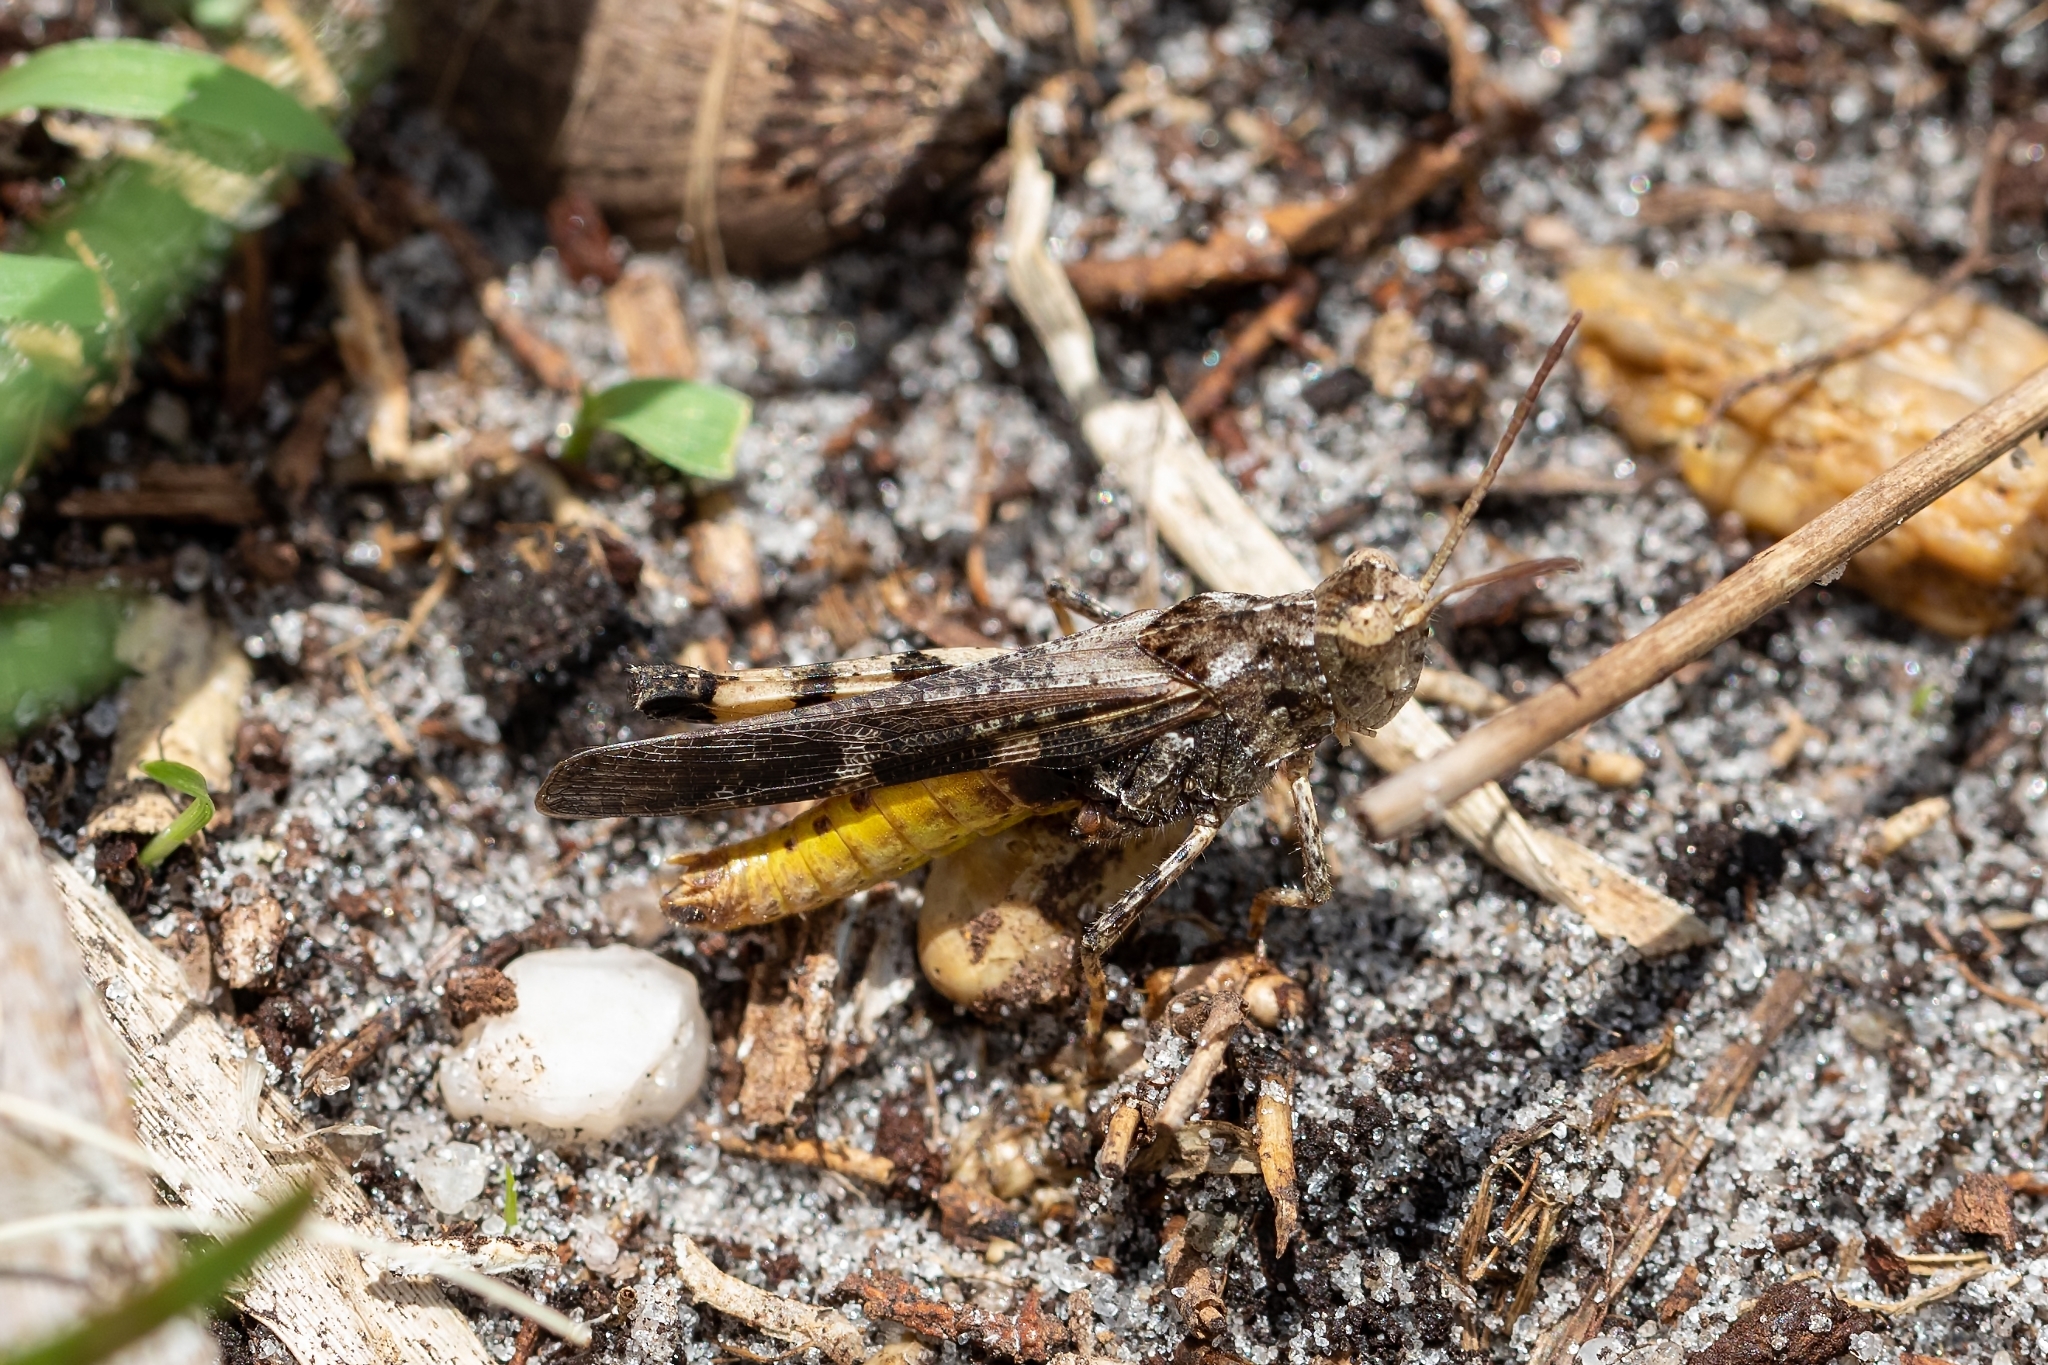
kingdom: Animalia
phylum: Arthropoda
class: Insecta
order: Orthoptera
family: Acrididae
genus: Chortophaga
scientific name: Chortophaga australior
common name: Southern green-striped grasshopper
